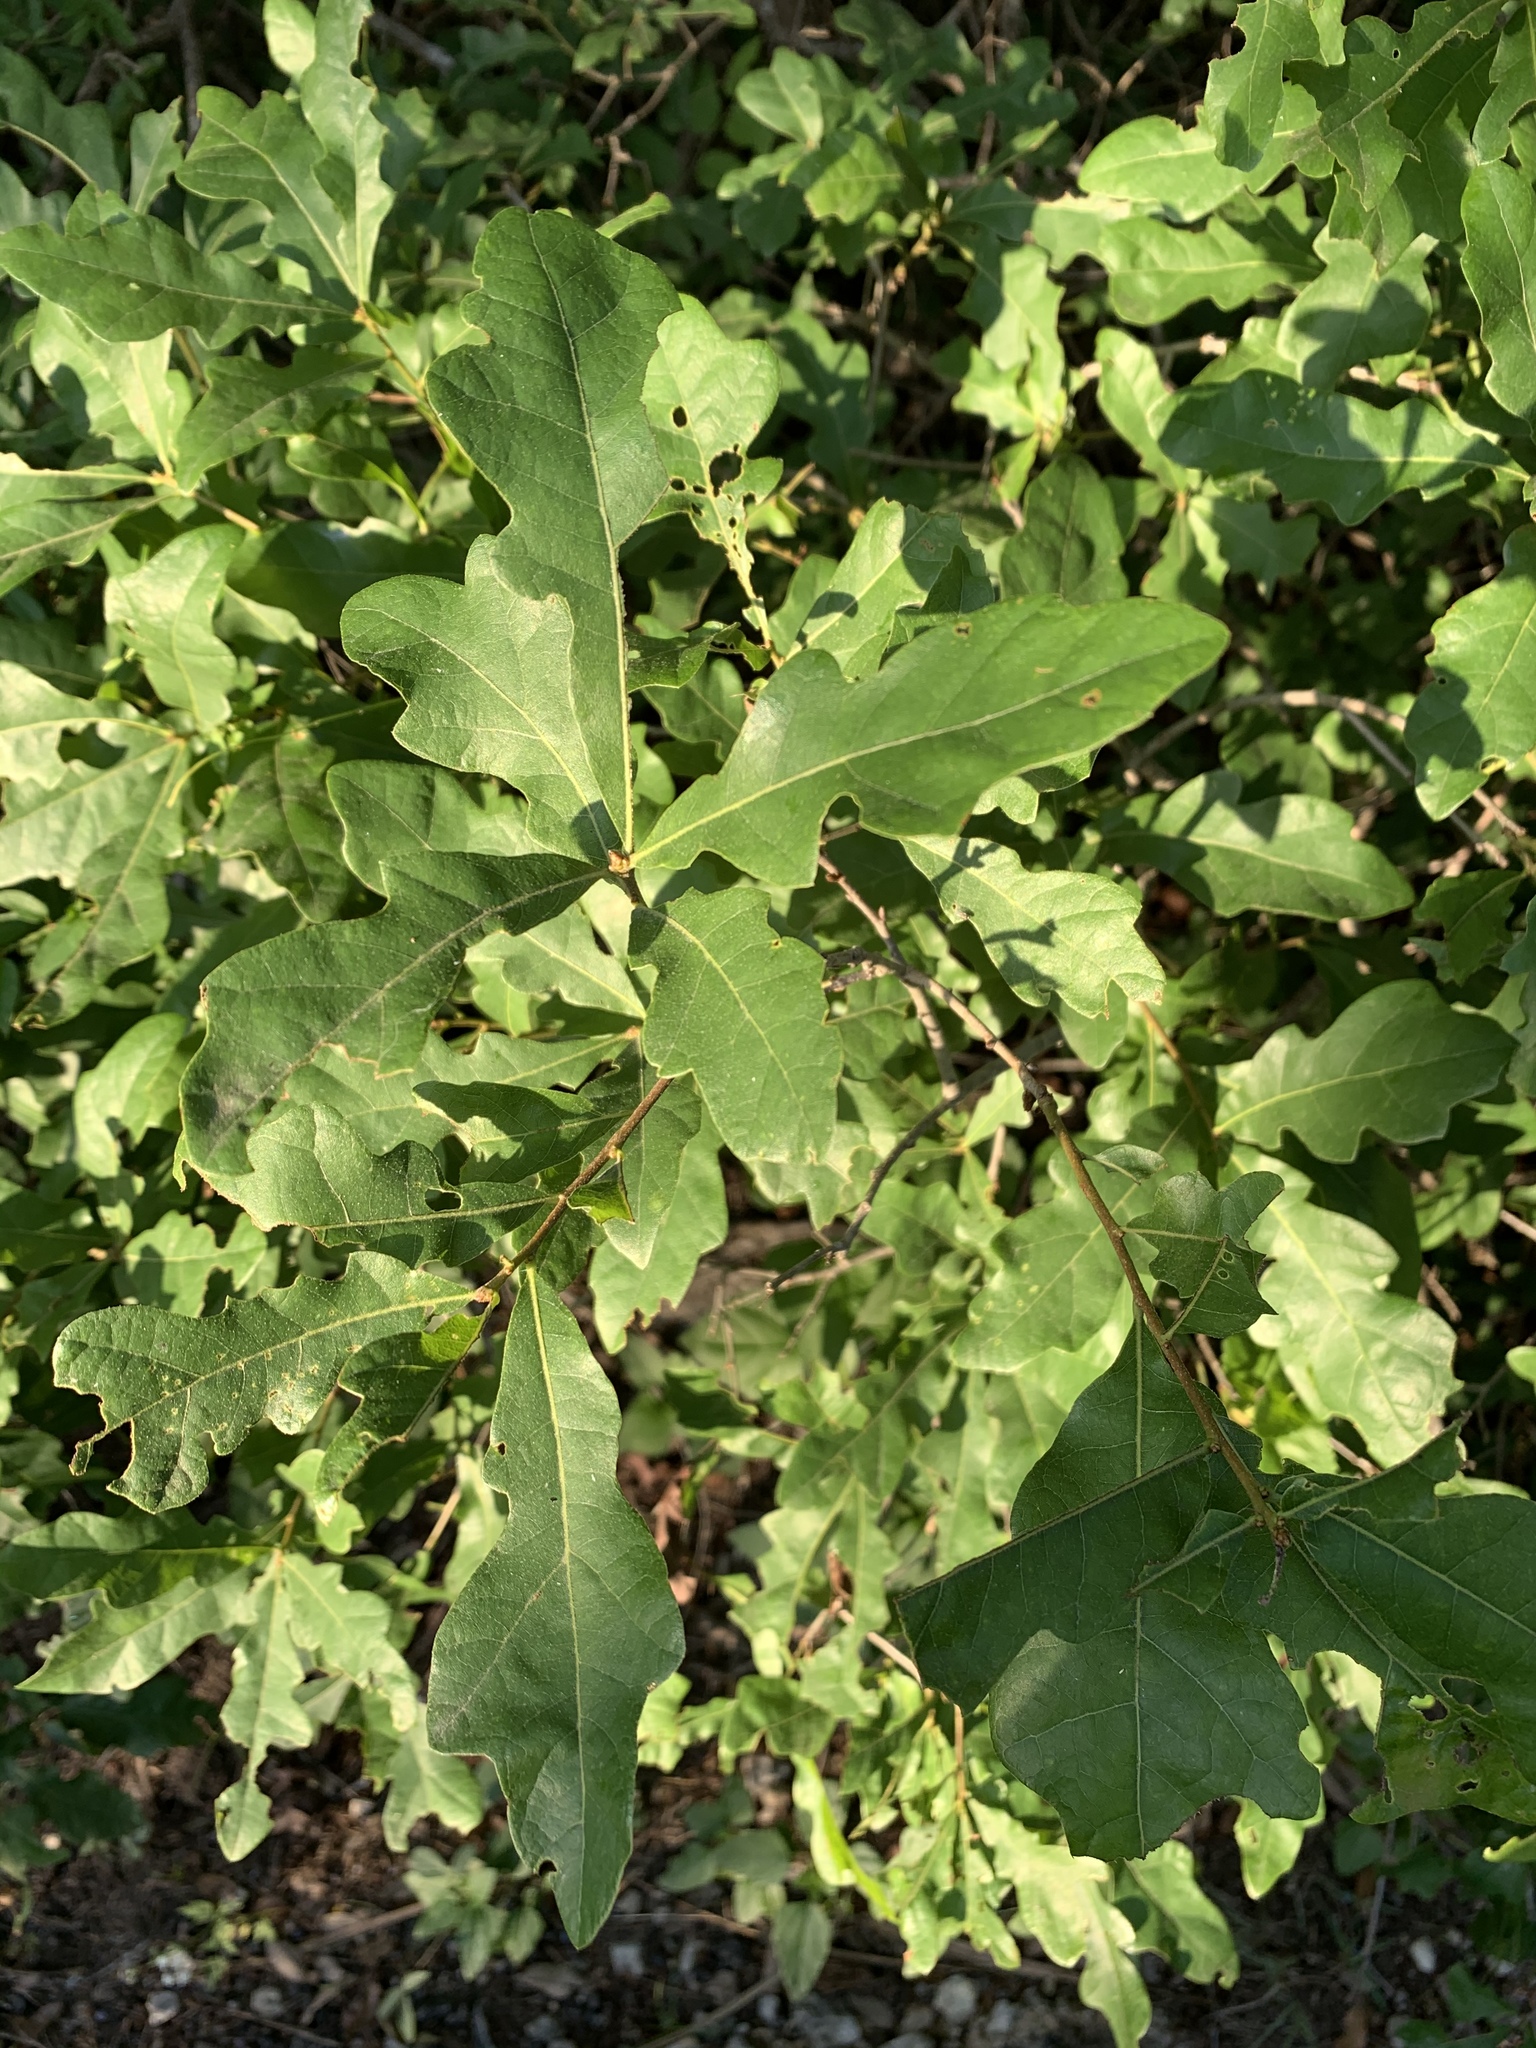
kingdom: Plantae
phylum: Tracheophyta
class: Magnoliopsida
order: Fagales
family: Fagaceae
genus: Quercus
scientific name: Quercus sinuata
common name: Durand oak
